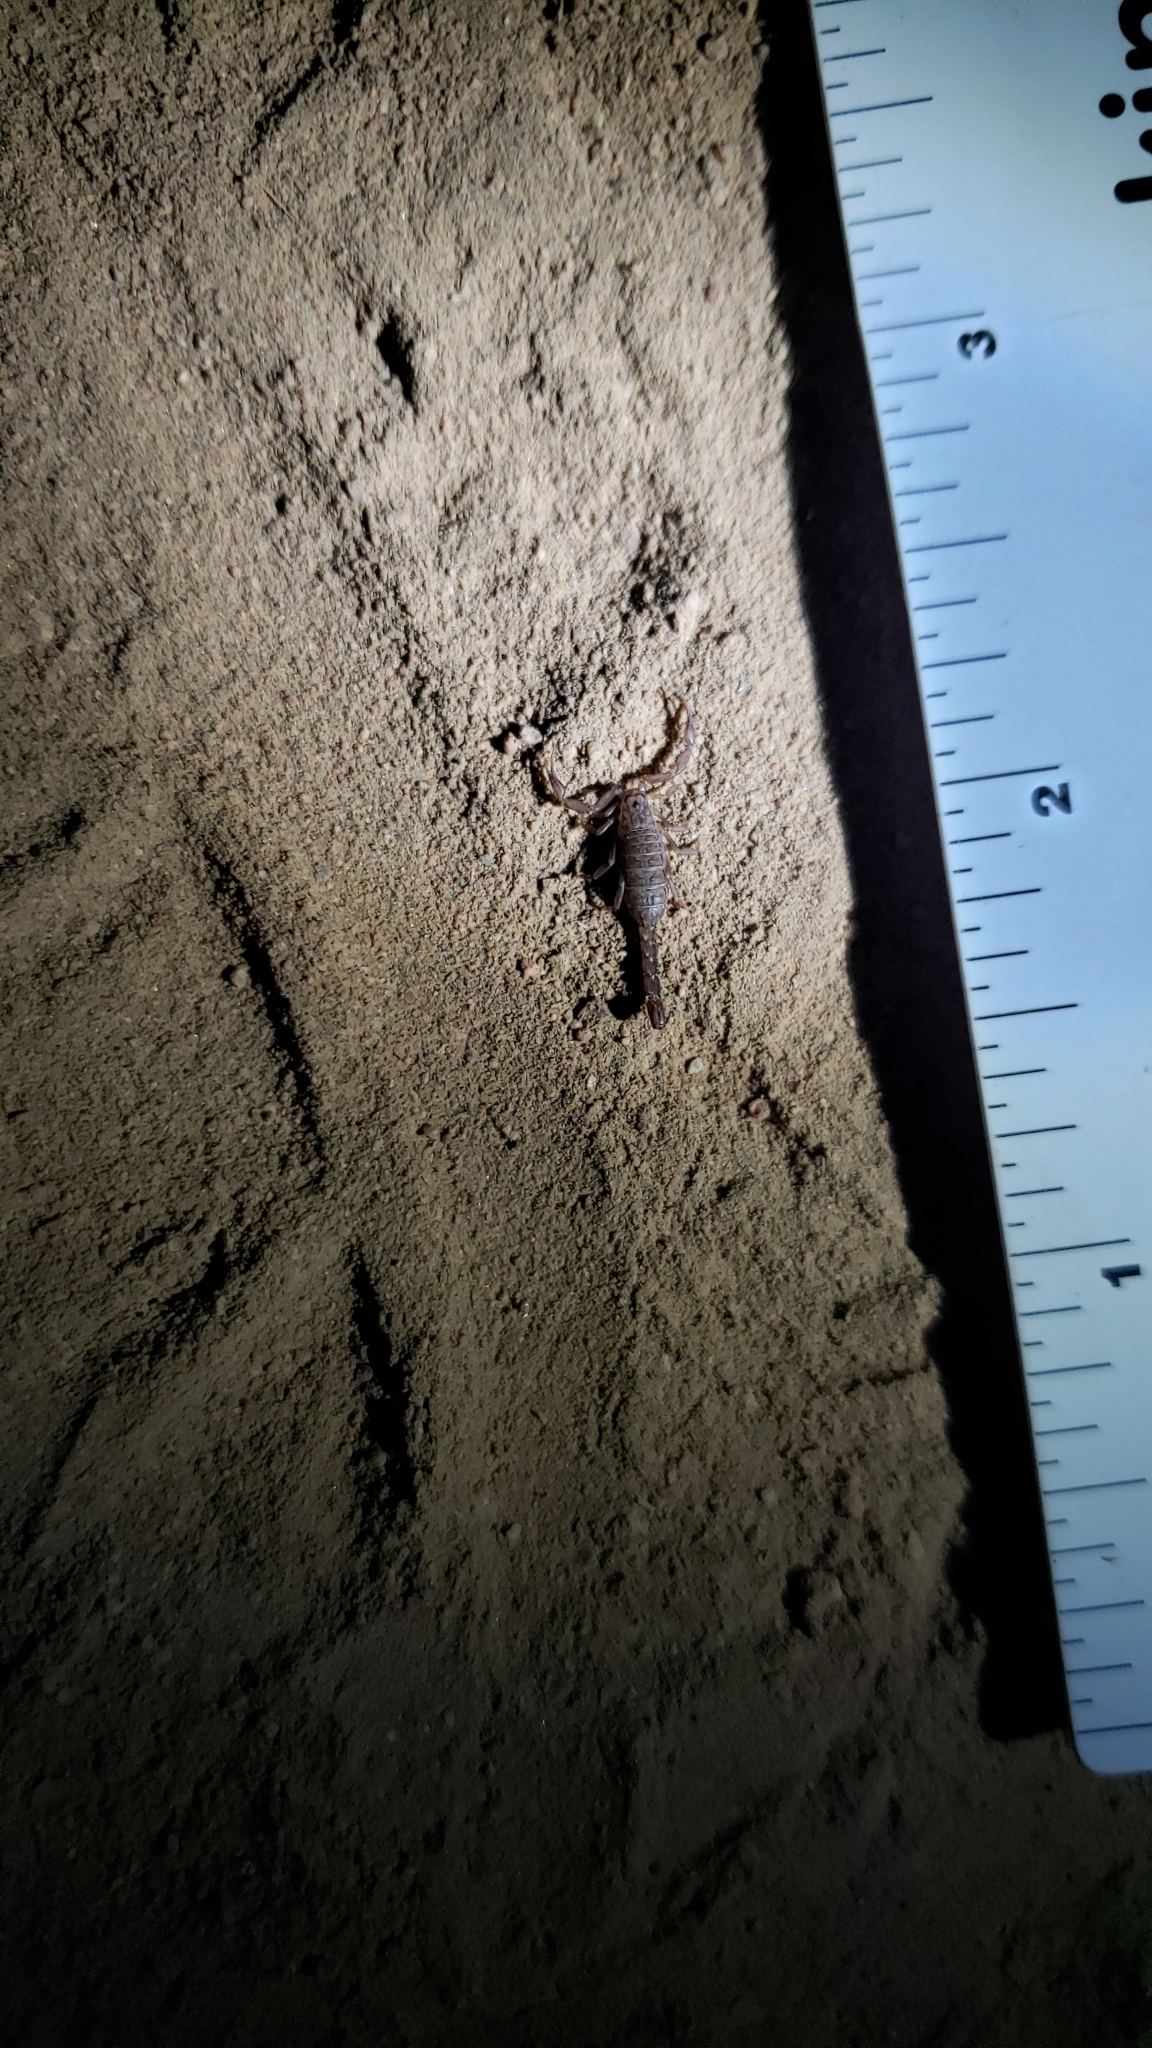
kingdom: Animalia
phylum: Arthropoda
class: Arachnida
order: Scorpiones
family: Vaejovidae
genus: Serradigitus
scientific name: Serradigitus gertschi
